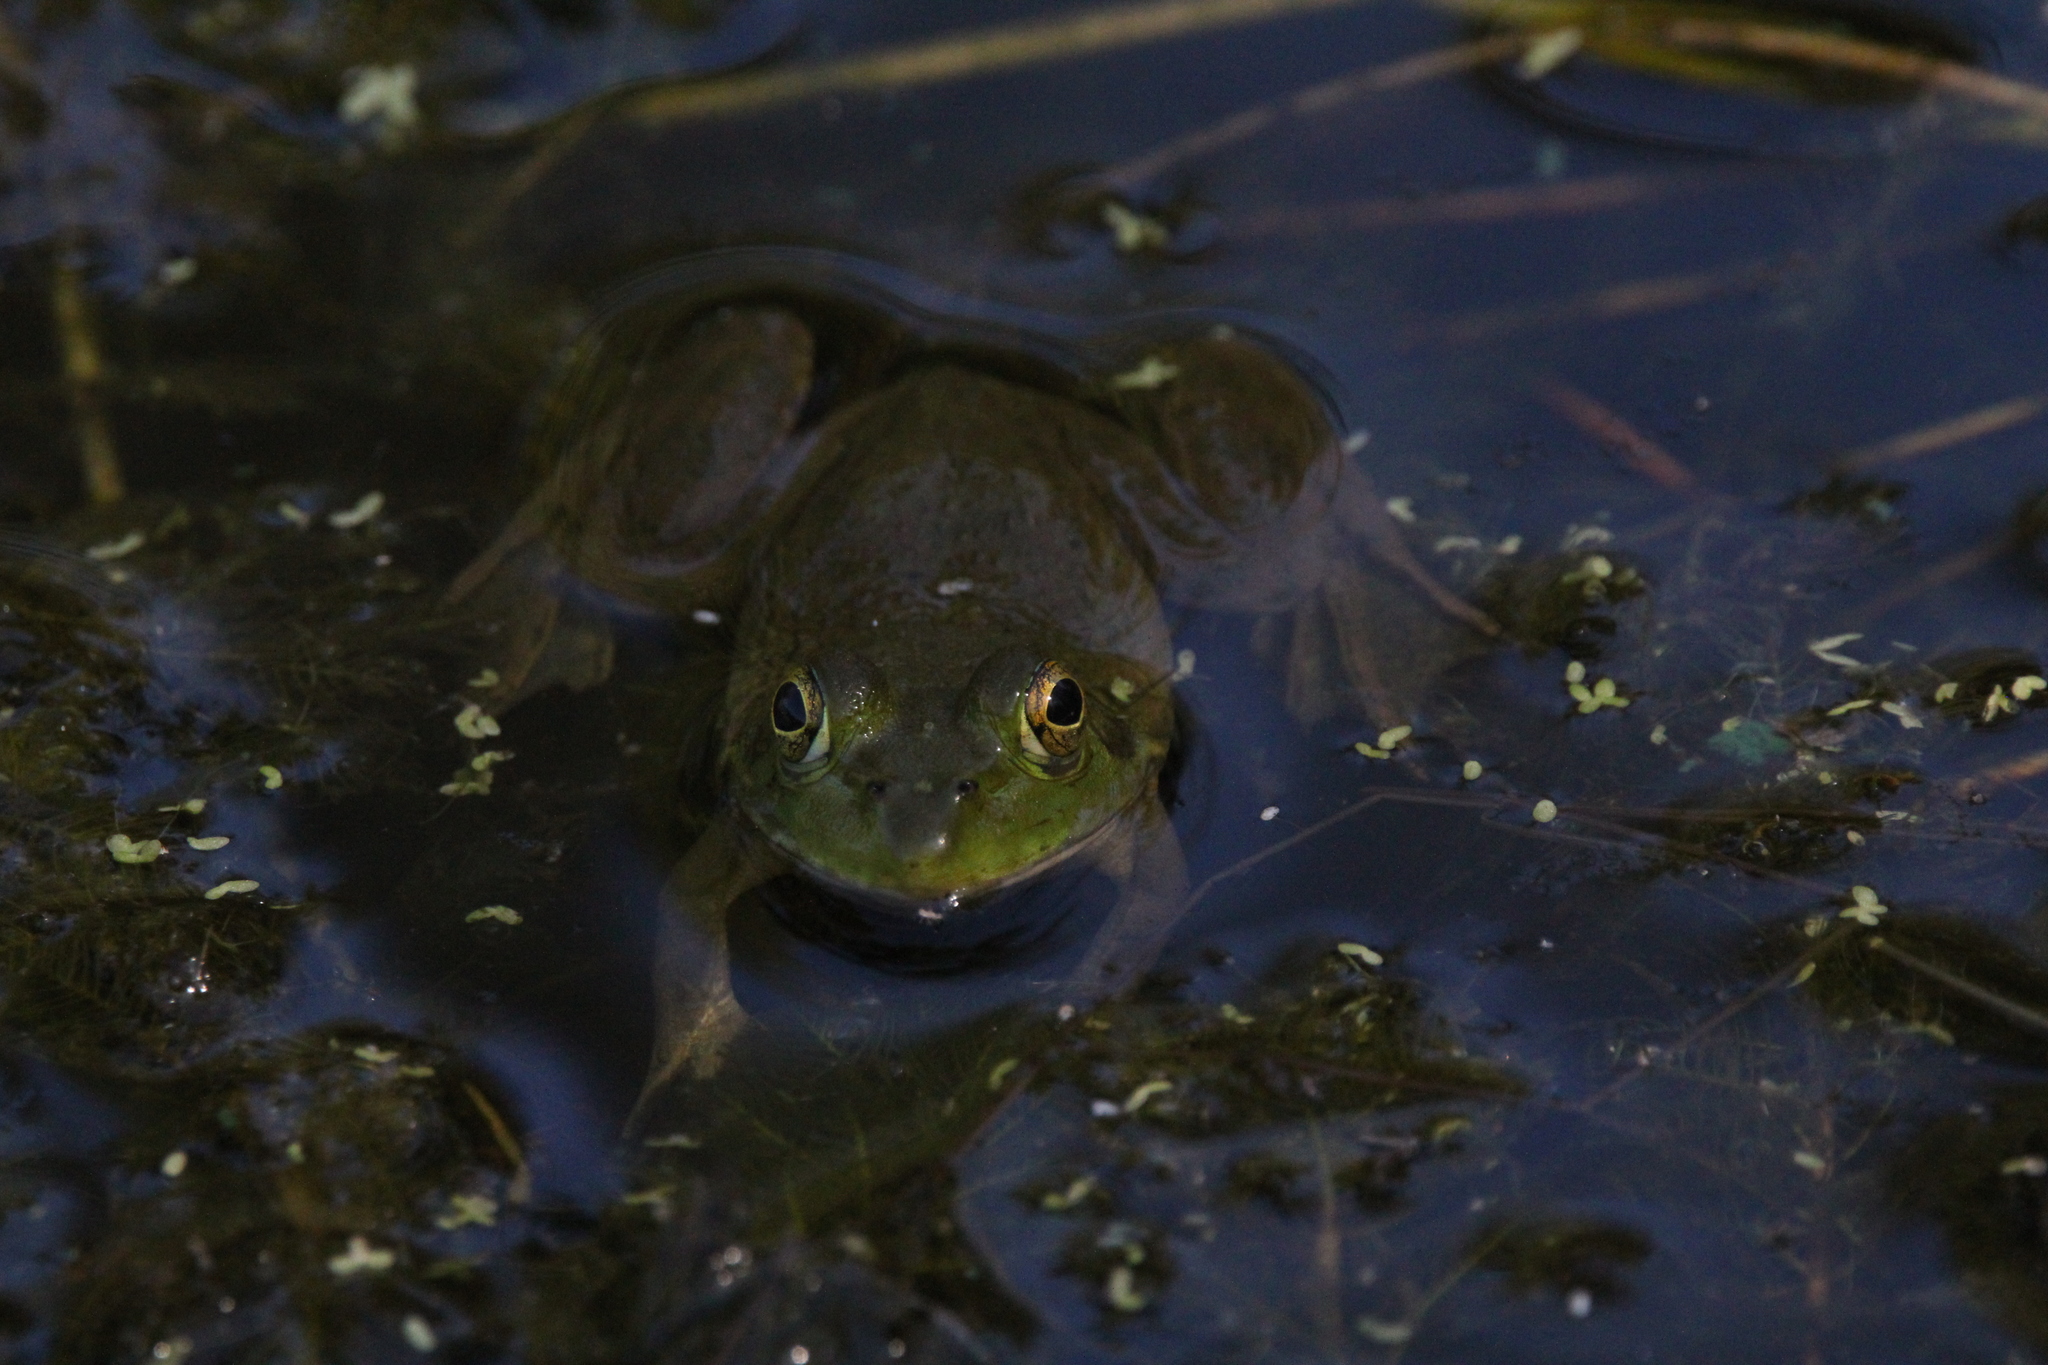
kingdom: Animalia
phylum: Chordata
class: Amphibia
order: Anura
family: Ranidae
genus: Lithobates
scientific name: Lithobates catesbeianus
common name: American bullfrog
